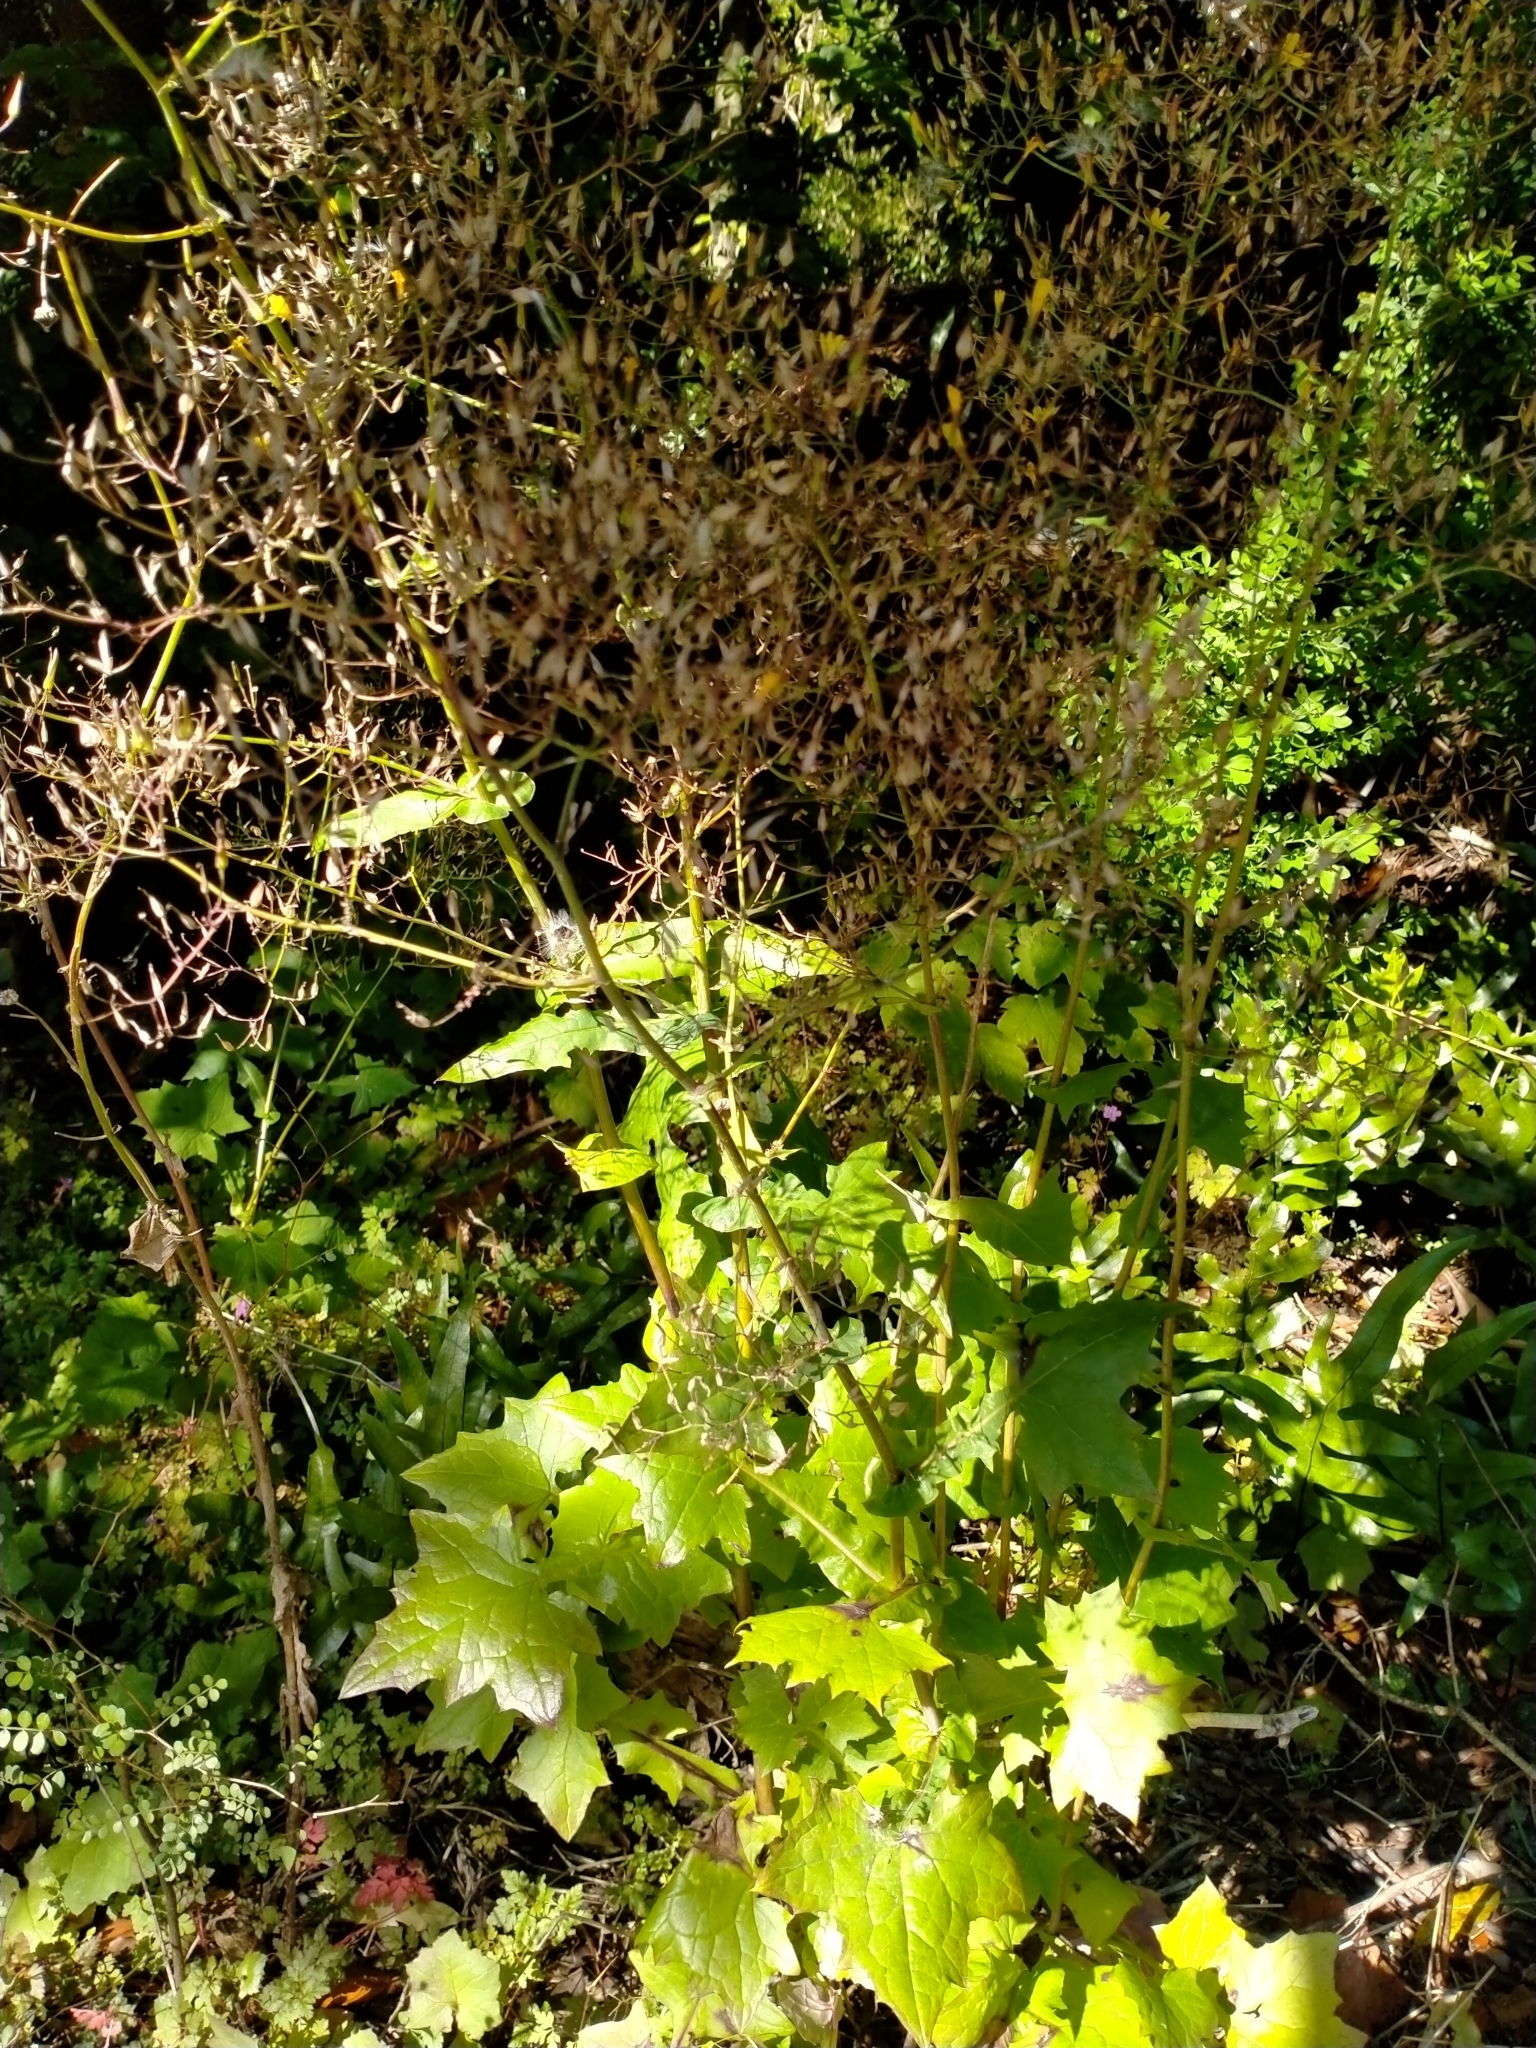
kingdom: Plantae
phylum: Tracheophyta
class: Magnoliopsida
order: Asterales
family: Asteraceae
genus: Mycelis
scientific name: Mycelis muralis
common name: Wall lettuce
